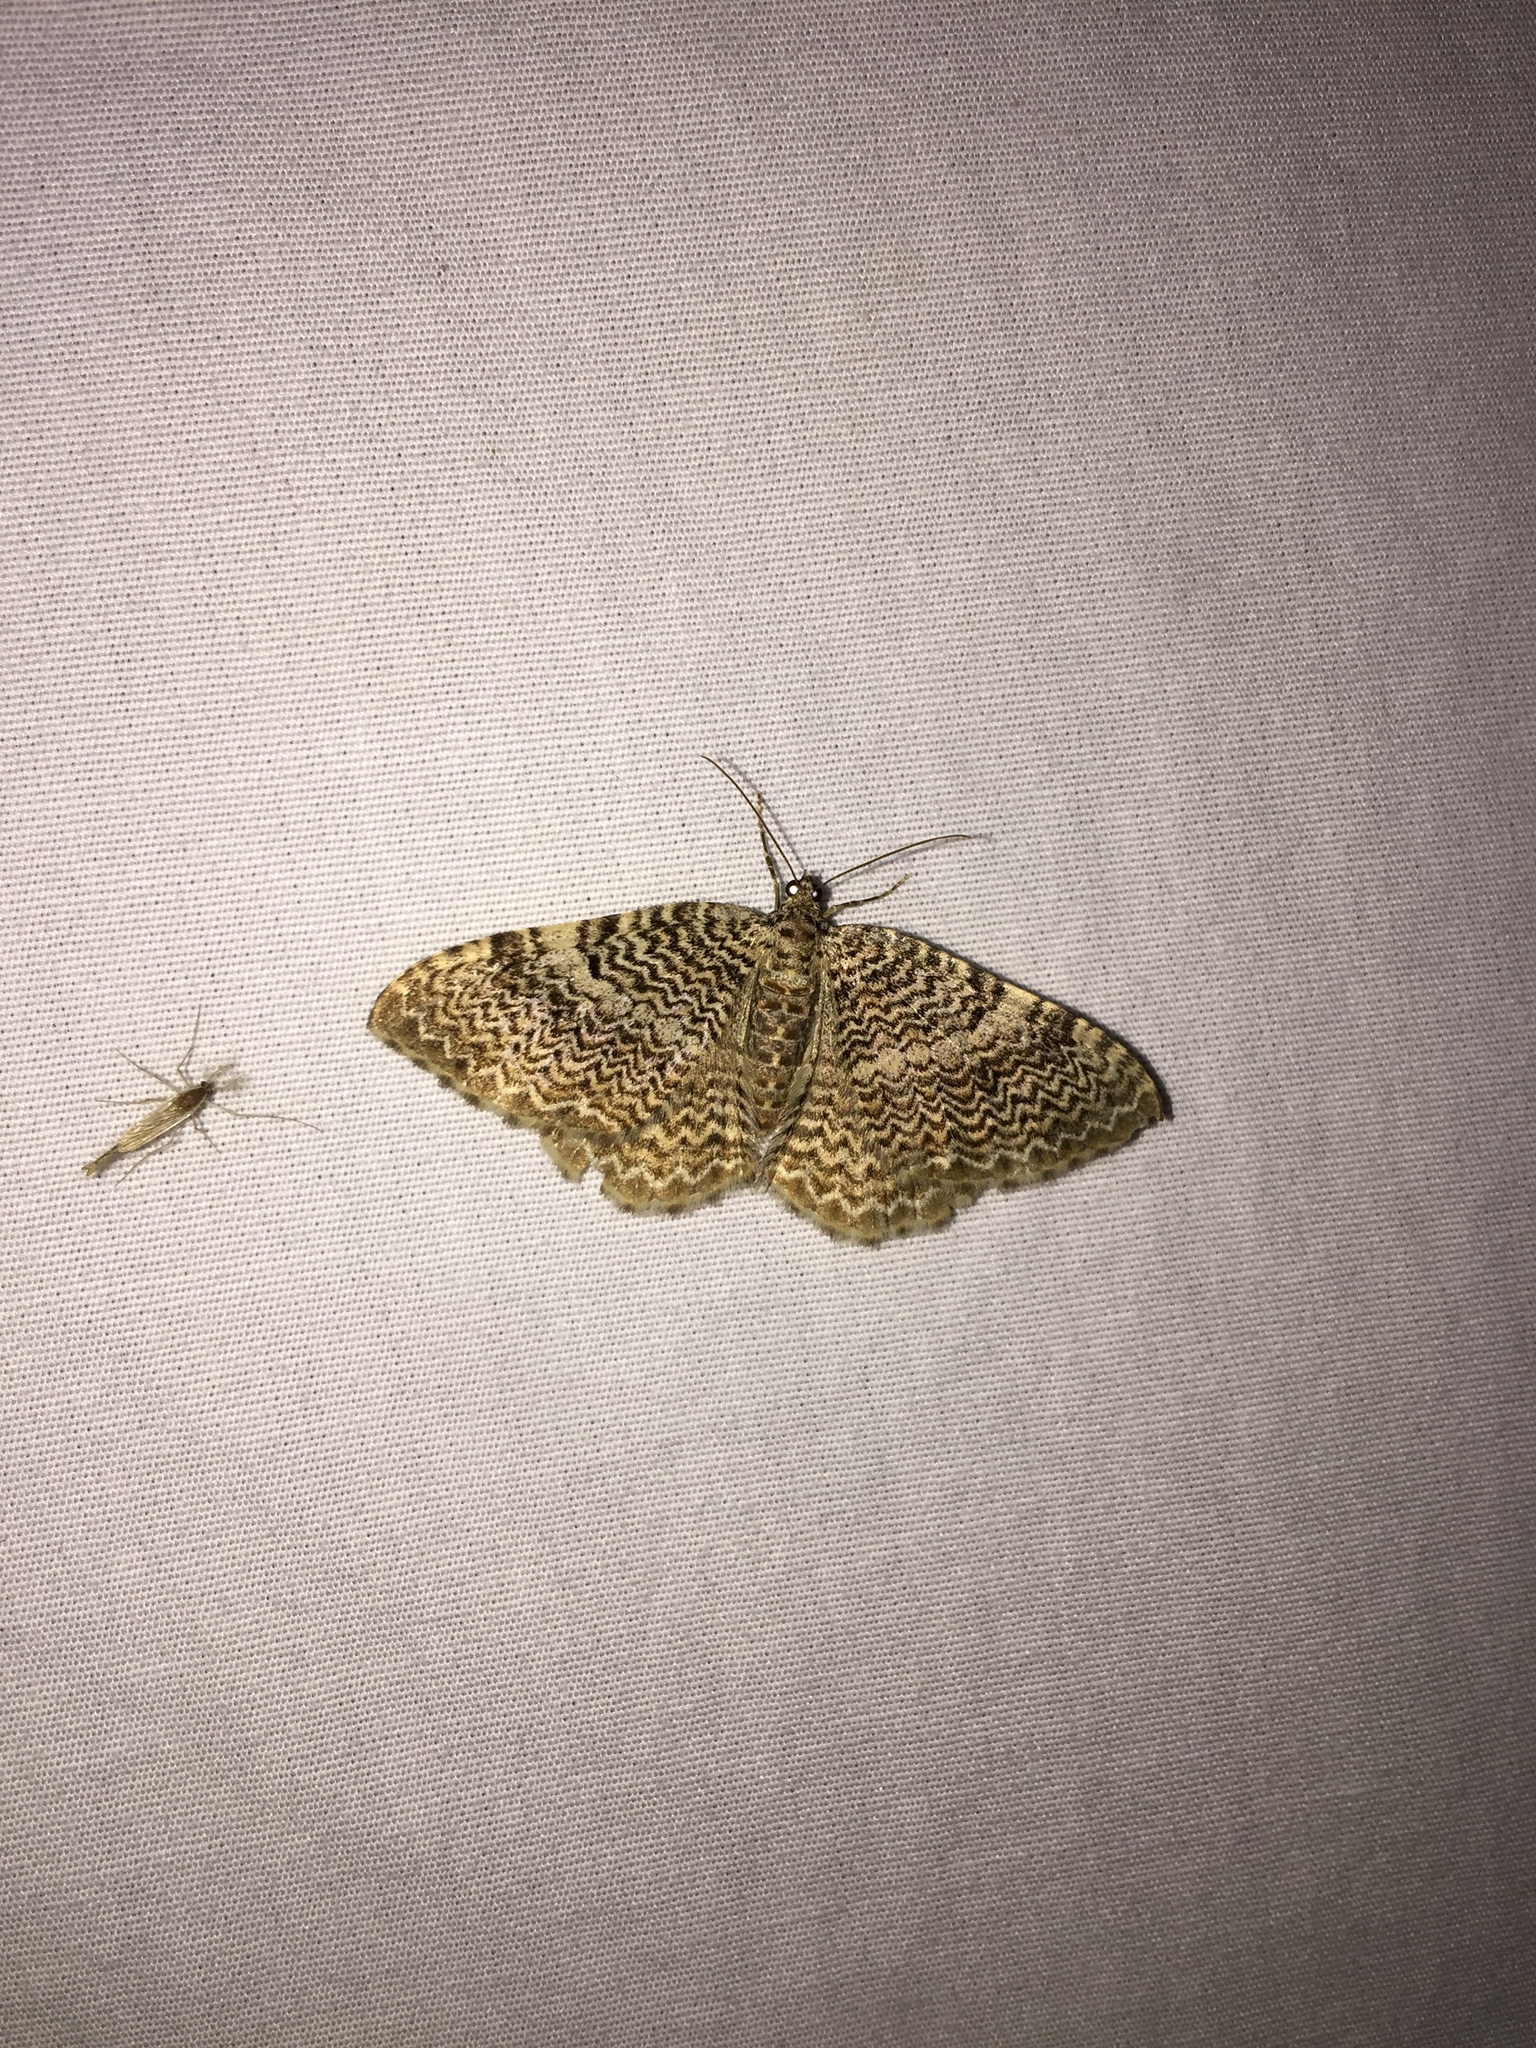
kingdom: Animalia
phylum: Arthropoda
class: Insecta
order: Lepidoptera
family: Geometridae
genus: Rheumaptera
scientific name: Rheumaptera
